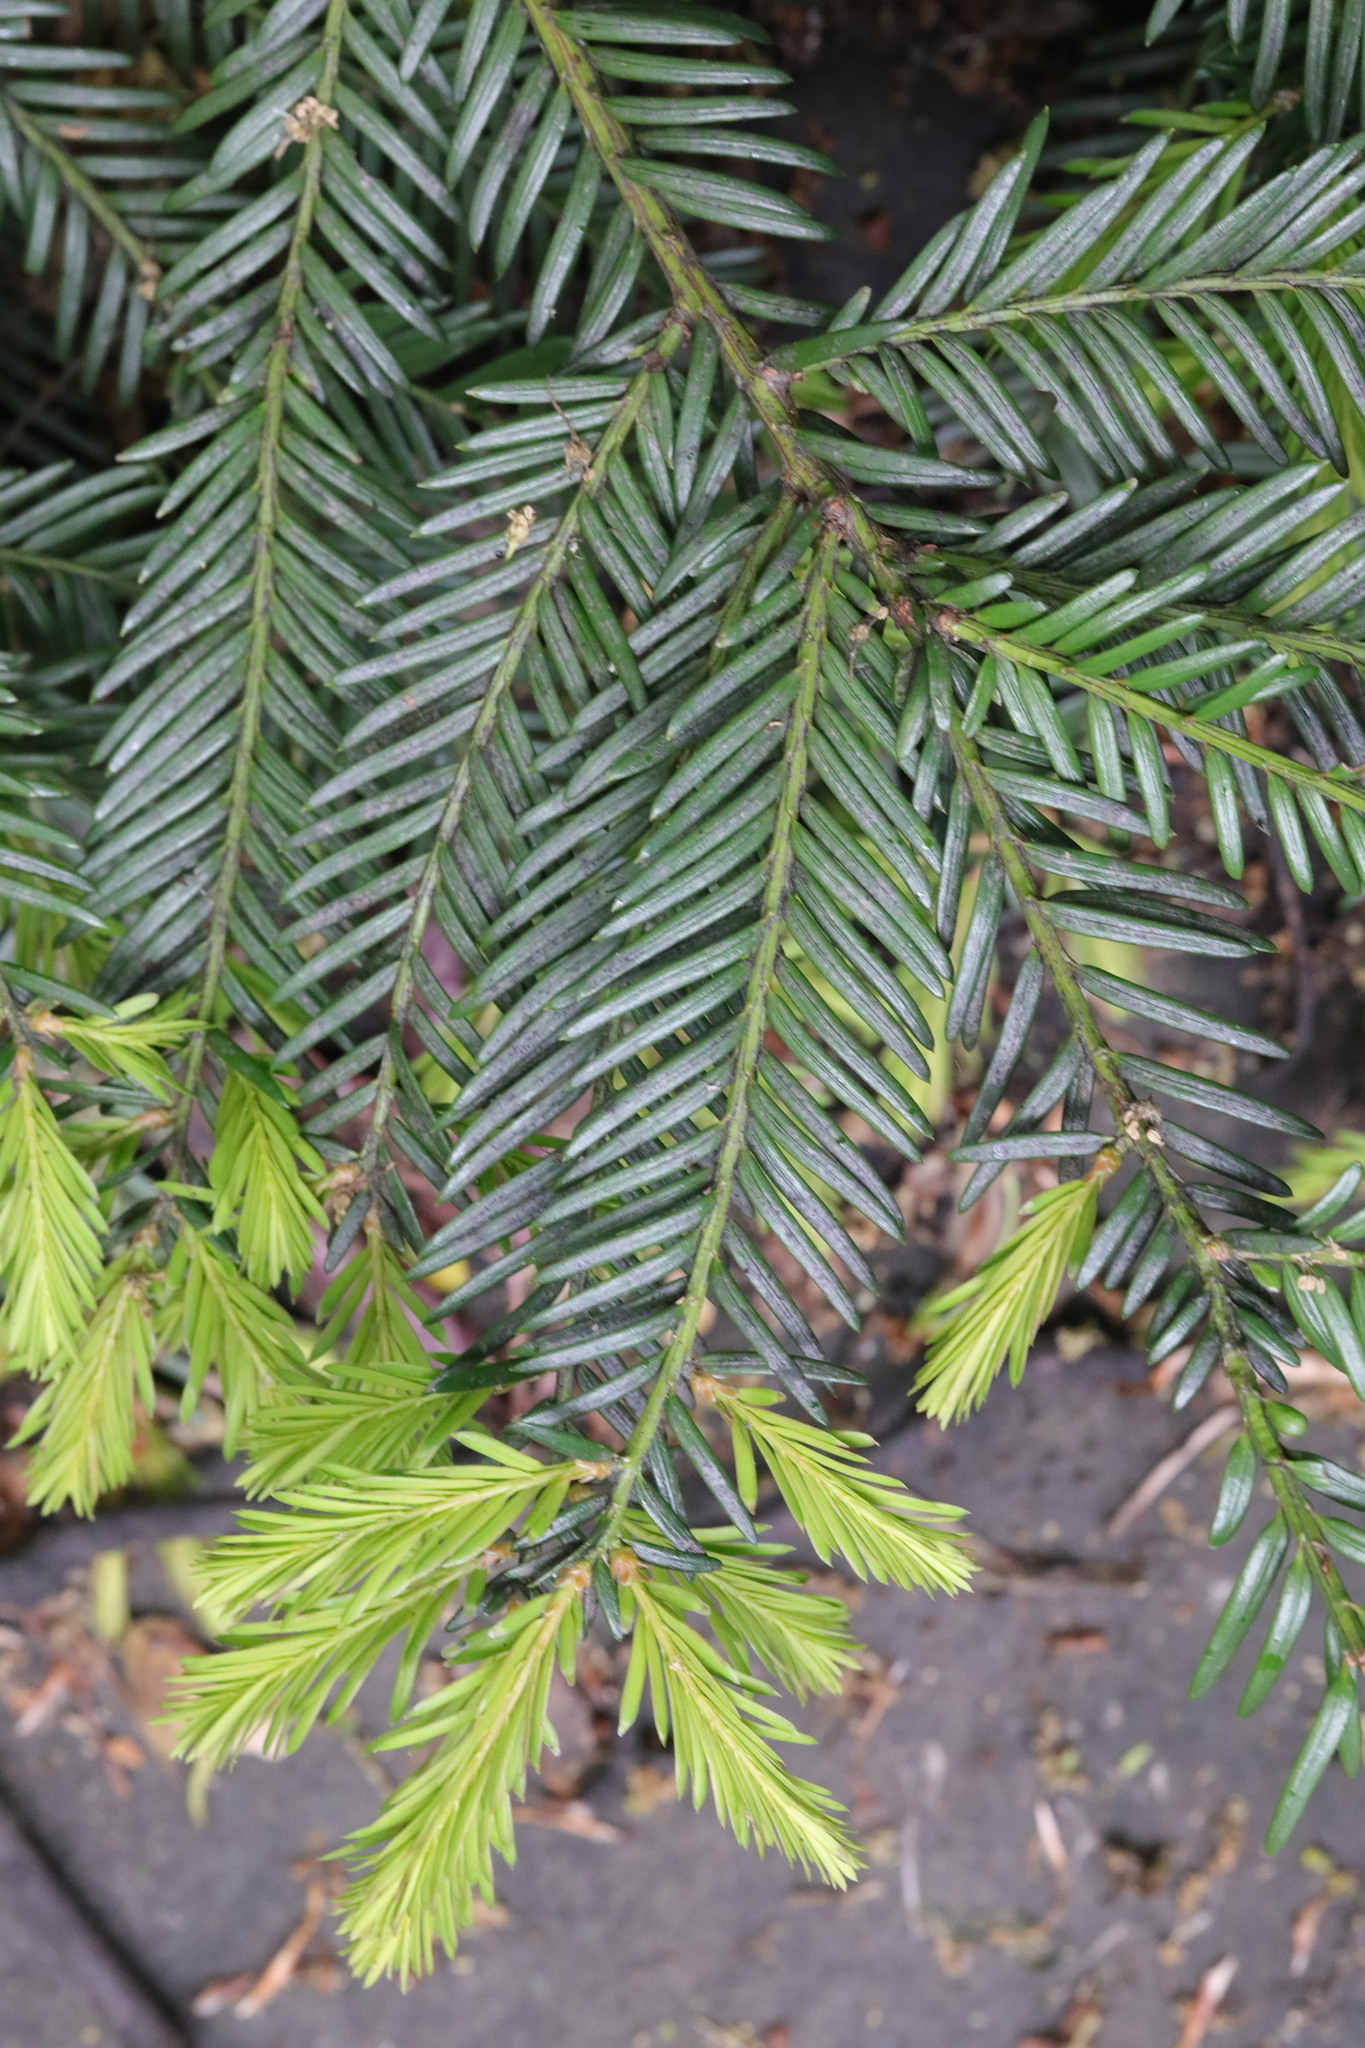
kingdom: Plantae
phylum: Tracheophyta
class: Pinopsida
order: Pinales
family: Taxaceae
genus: Taxus
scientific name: Taxus baccata
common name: Yew
